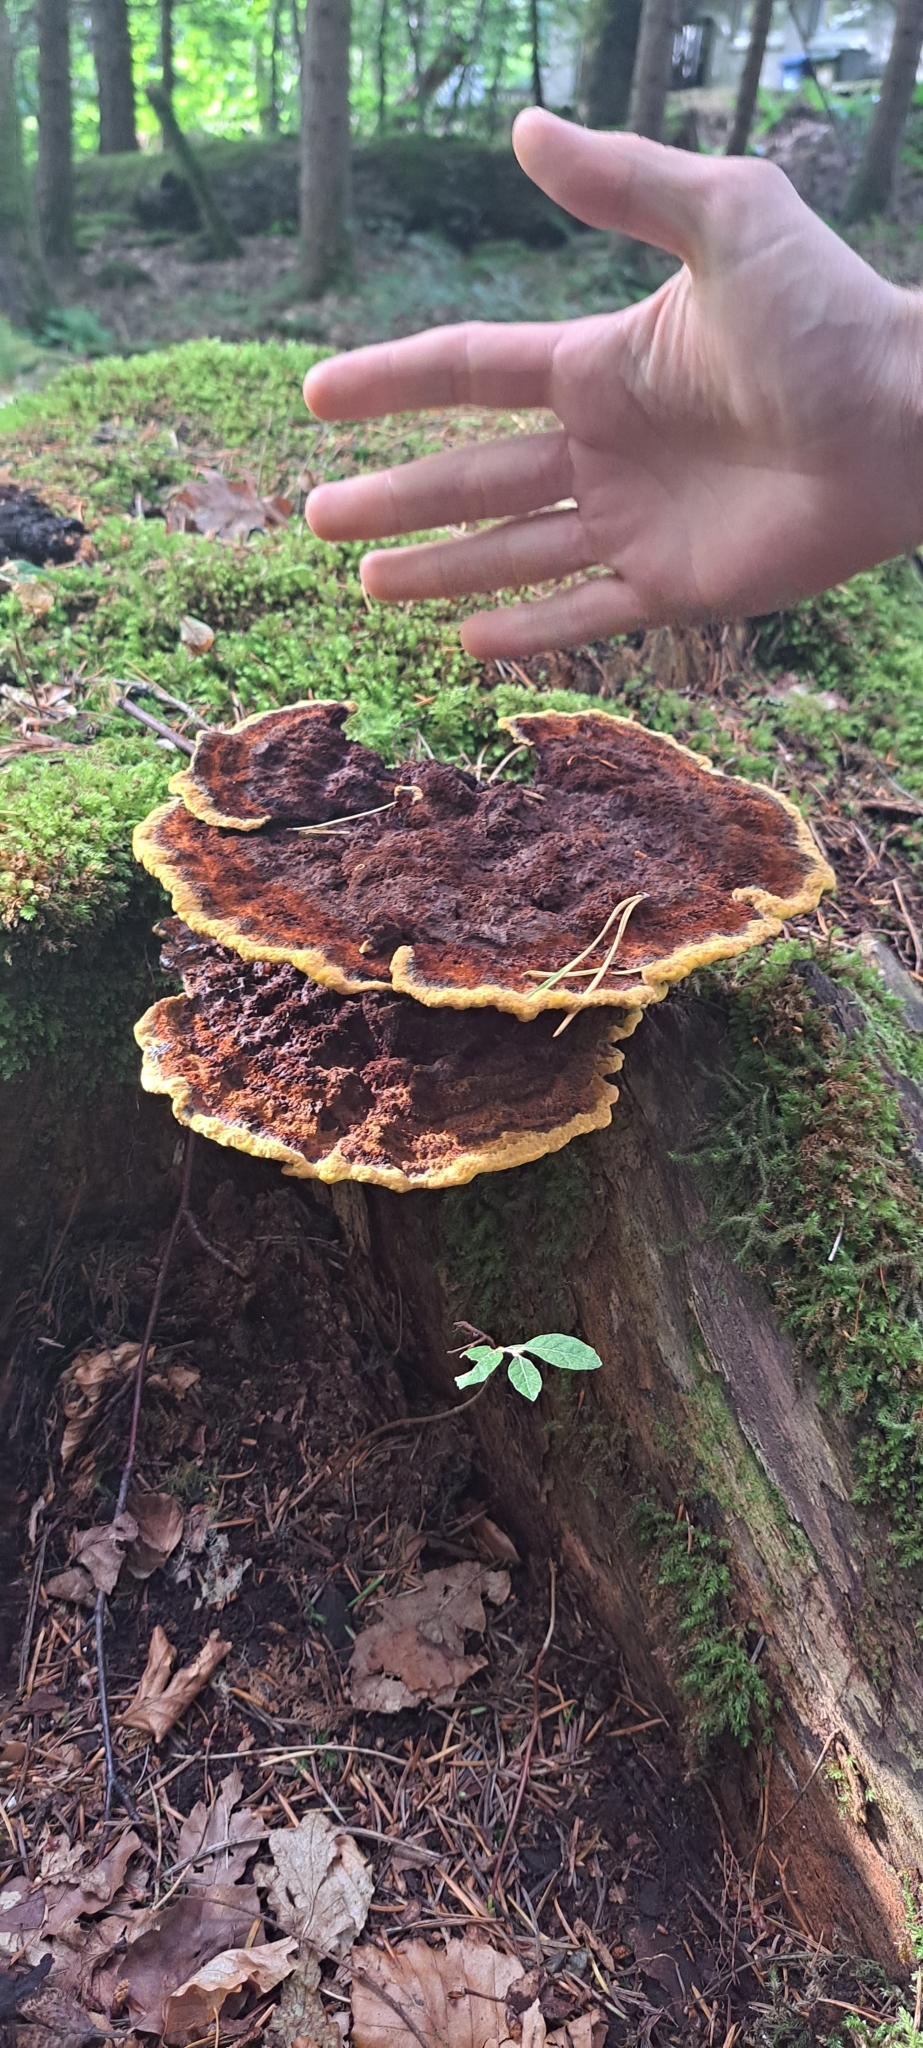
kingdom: Fungi
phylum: Basidiomycota
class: Agaricomycetes
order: Polyporales
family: Laetiporaceae
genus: Phaeolus
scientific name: Phaeolus schweinitzii
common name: Dyer's mazegill
